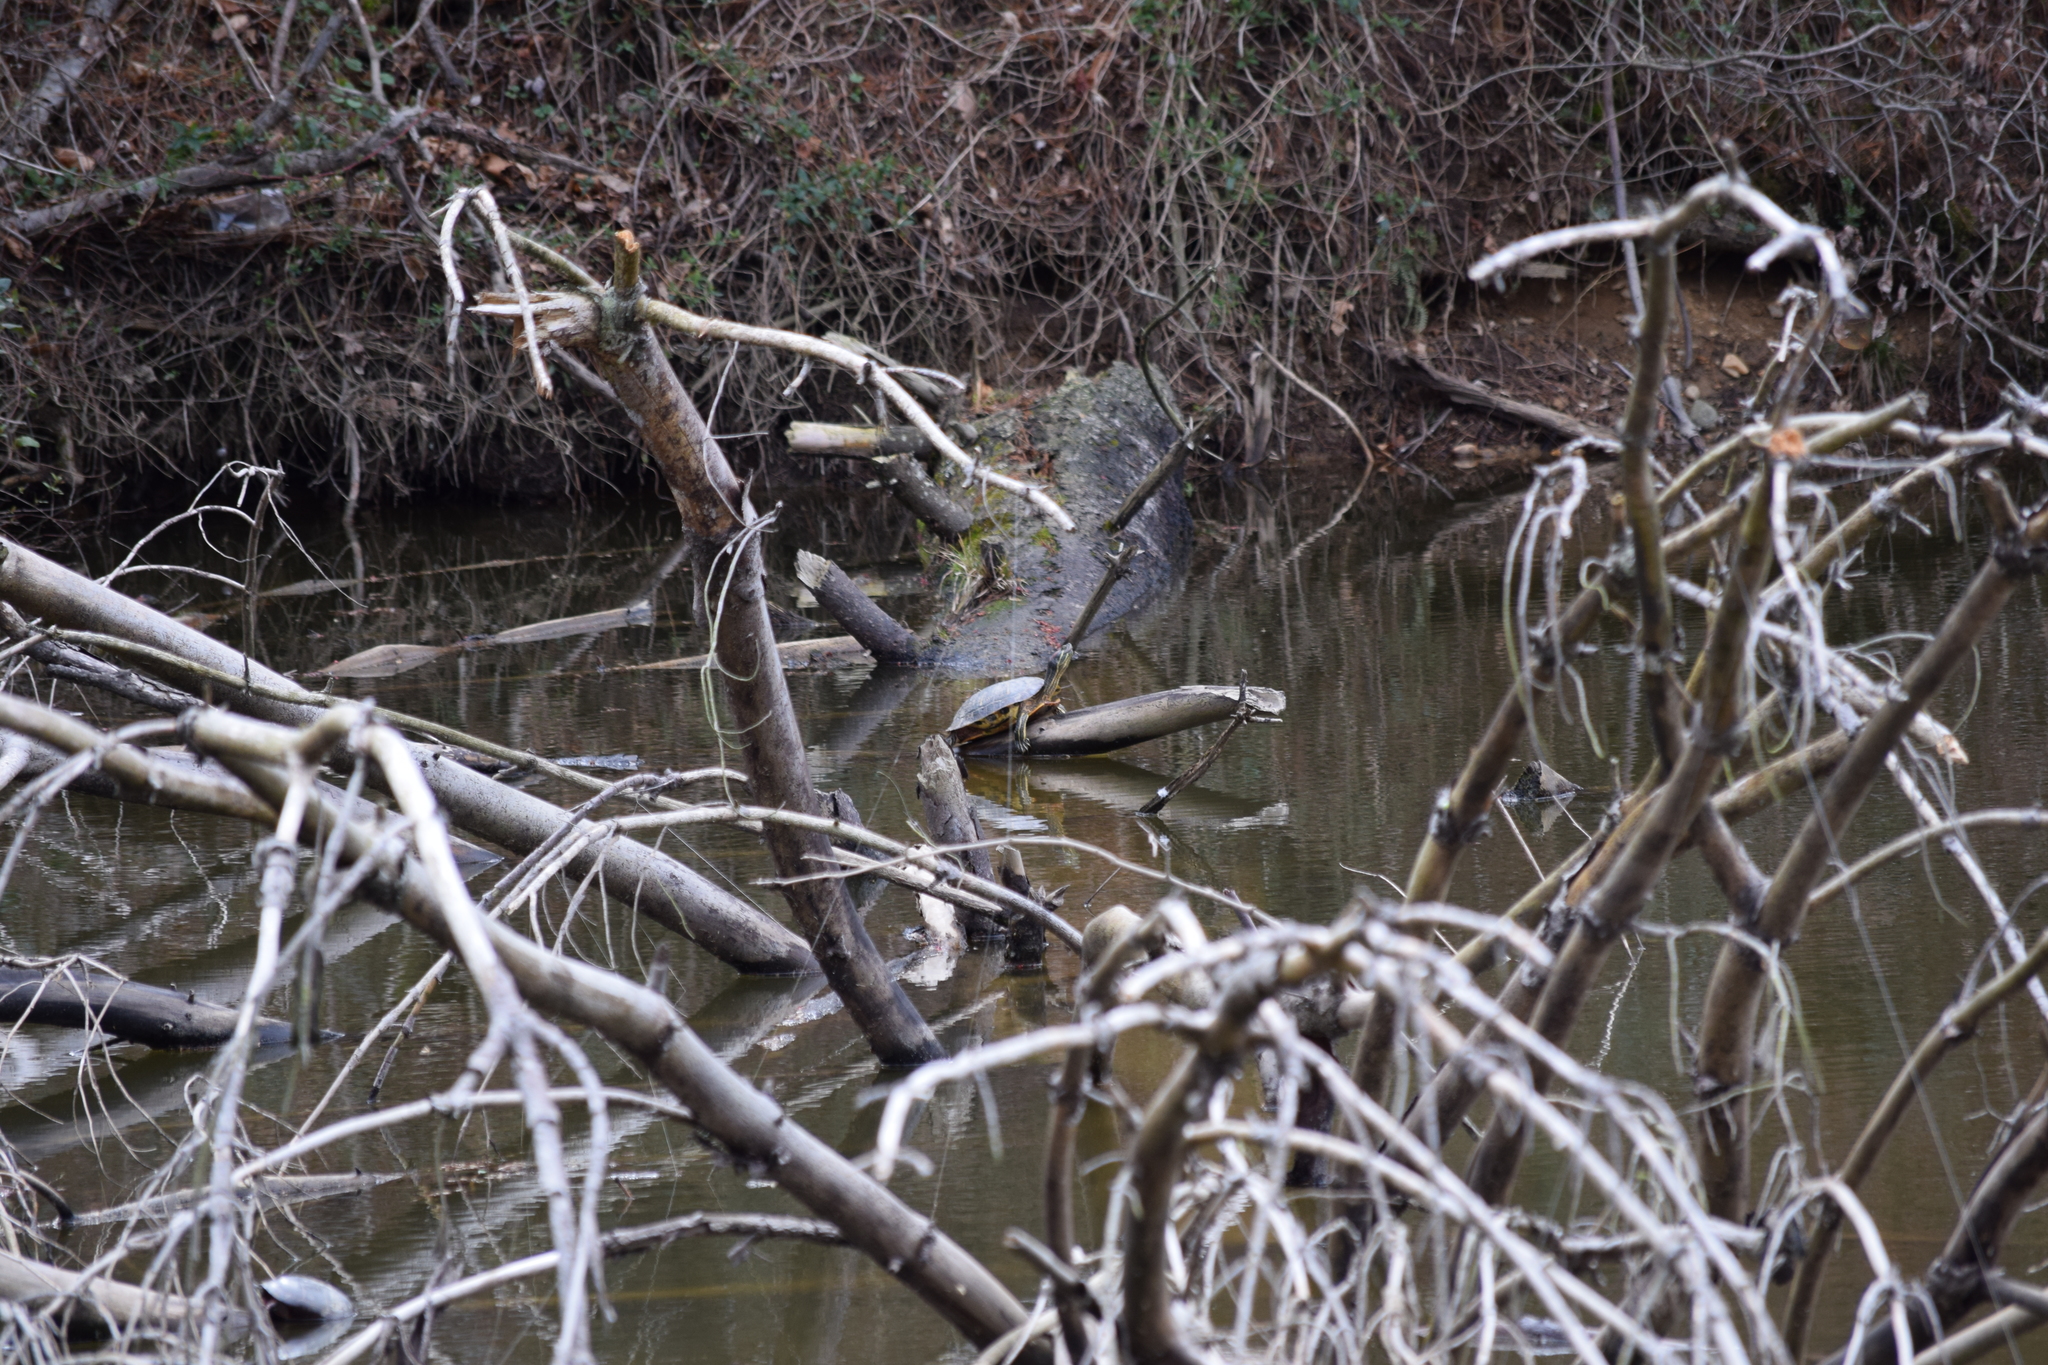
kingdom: Animalia
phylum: Chordata
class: Testudines
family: Emydidae
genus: Trachemys
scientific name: Trachemys scripta
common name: Slider
